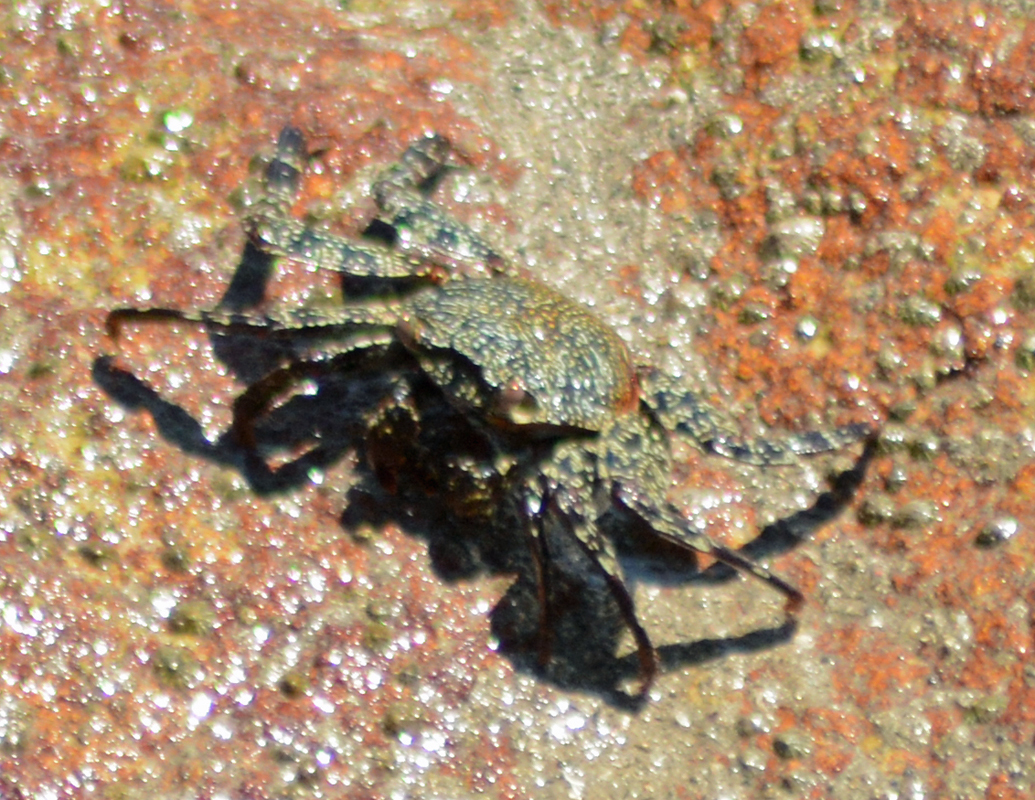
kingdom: Animalia
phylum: Arthropoda
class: Malacostraca
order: Decapoda
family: Grapsidae
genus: Grapsus
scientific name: Grapsus grapsus
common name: Sally lightfoot
